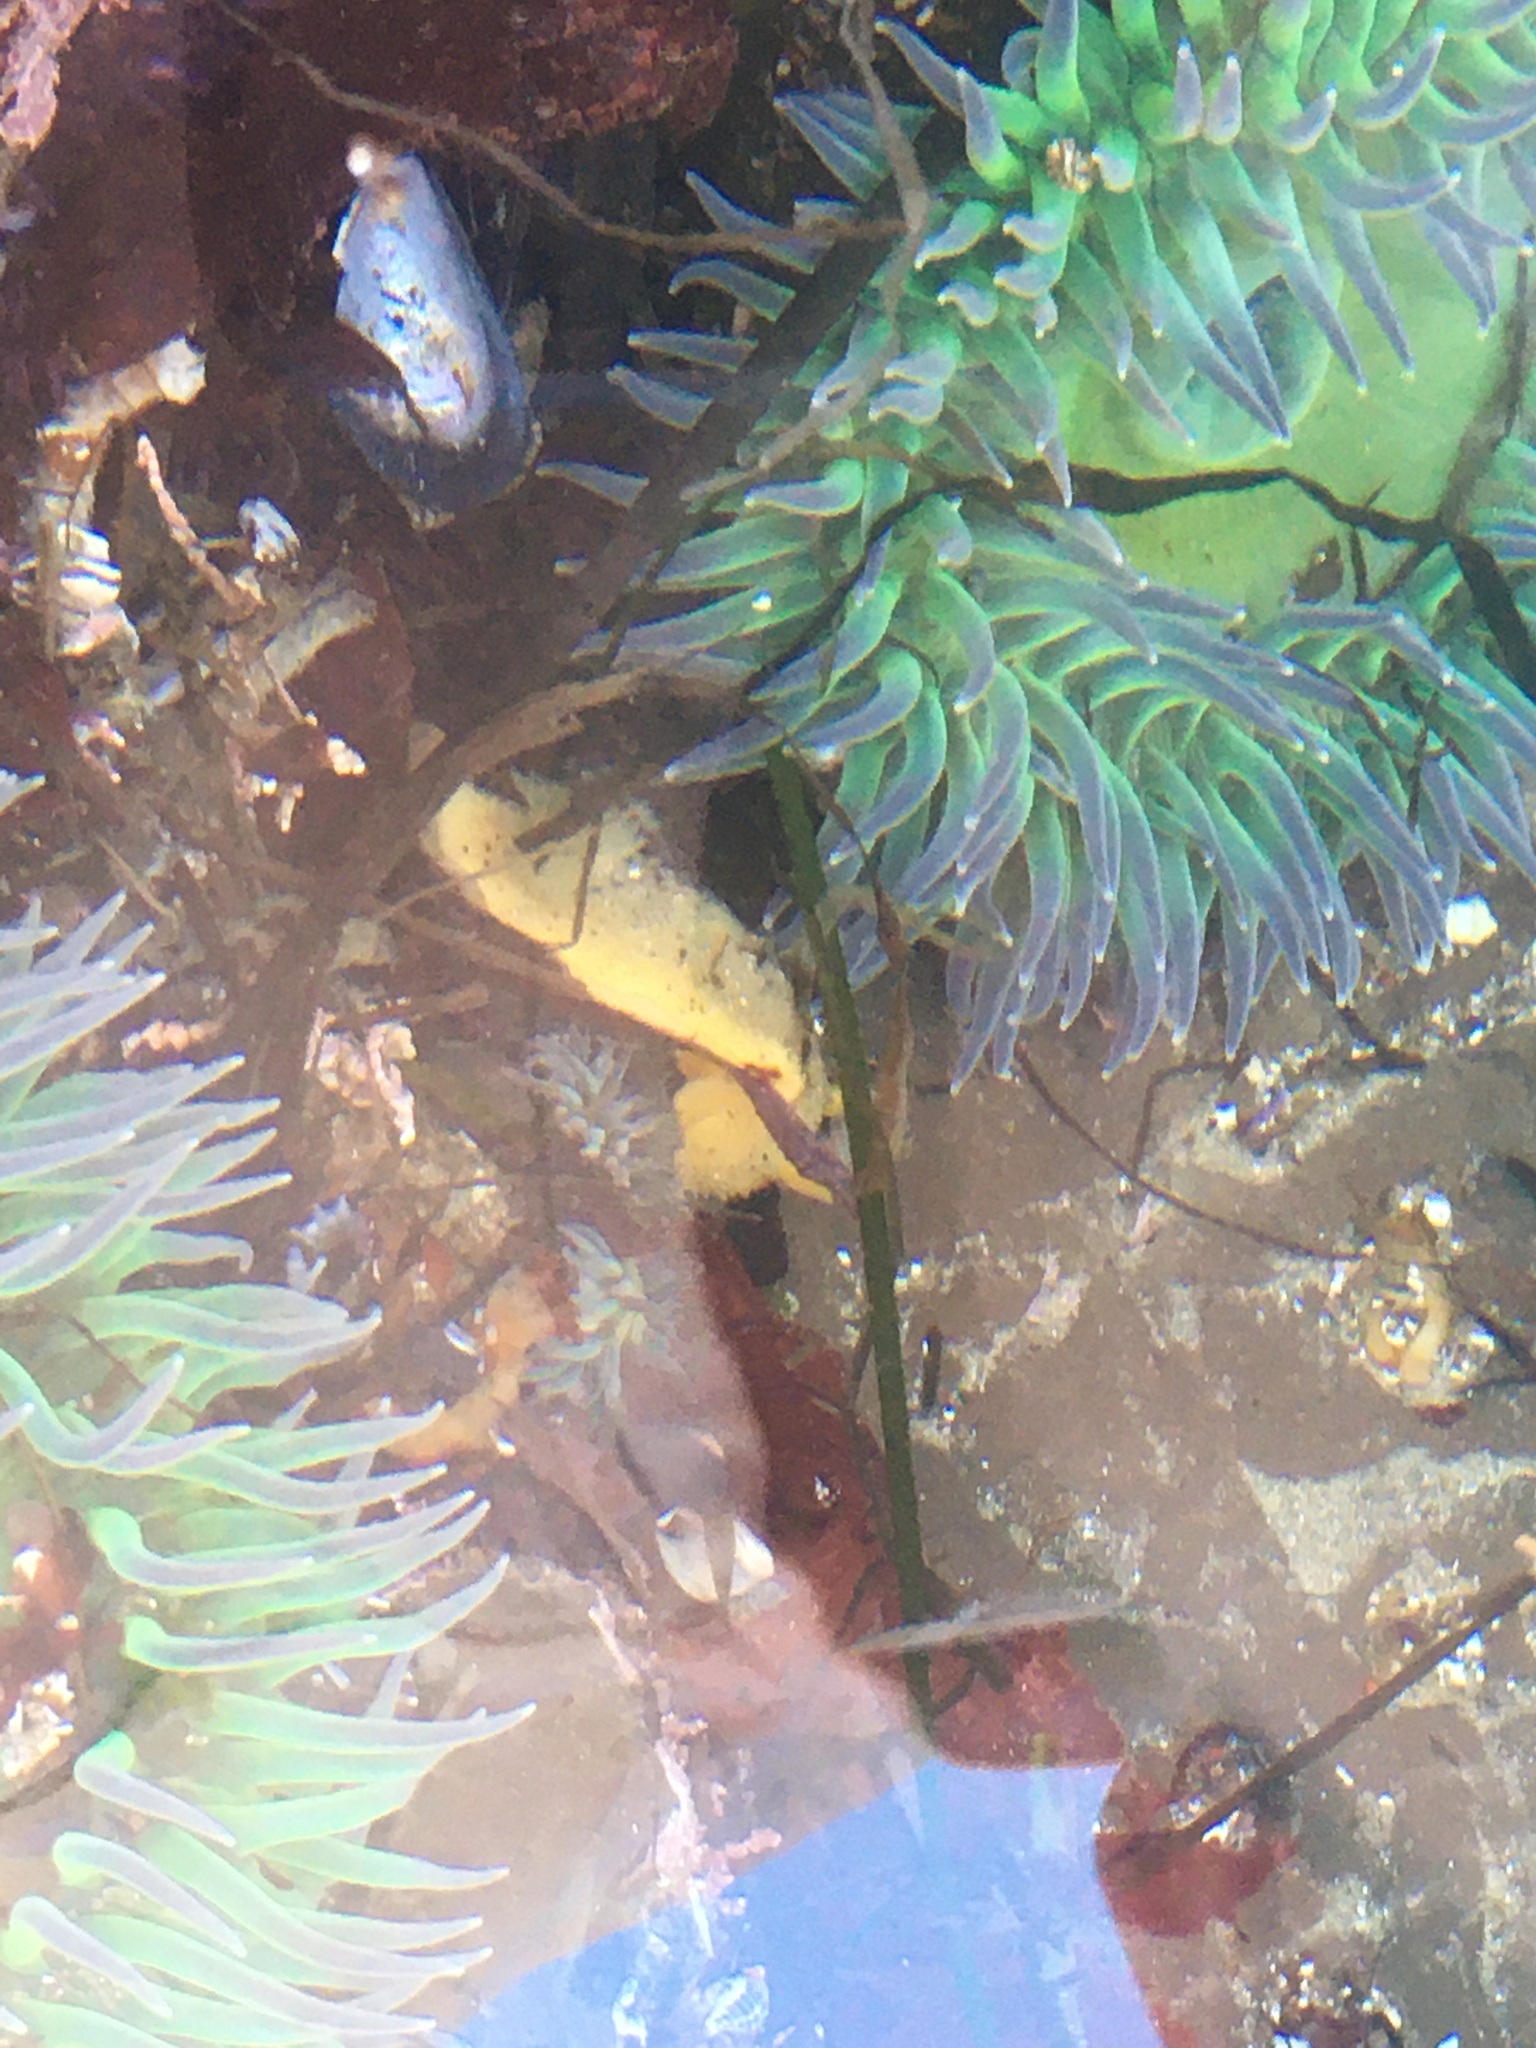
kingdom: Animalia
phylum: Mollusca
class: Gastropoda
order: Nudibranchia
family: Dorididae
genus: Doris
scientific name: Doris montereyensis
